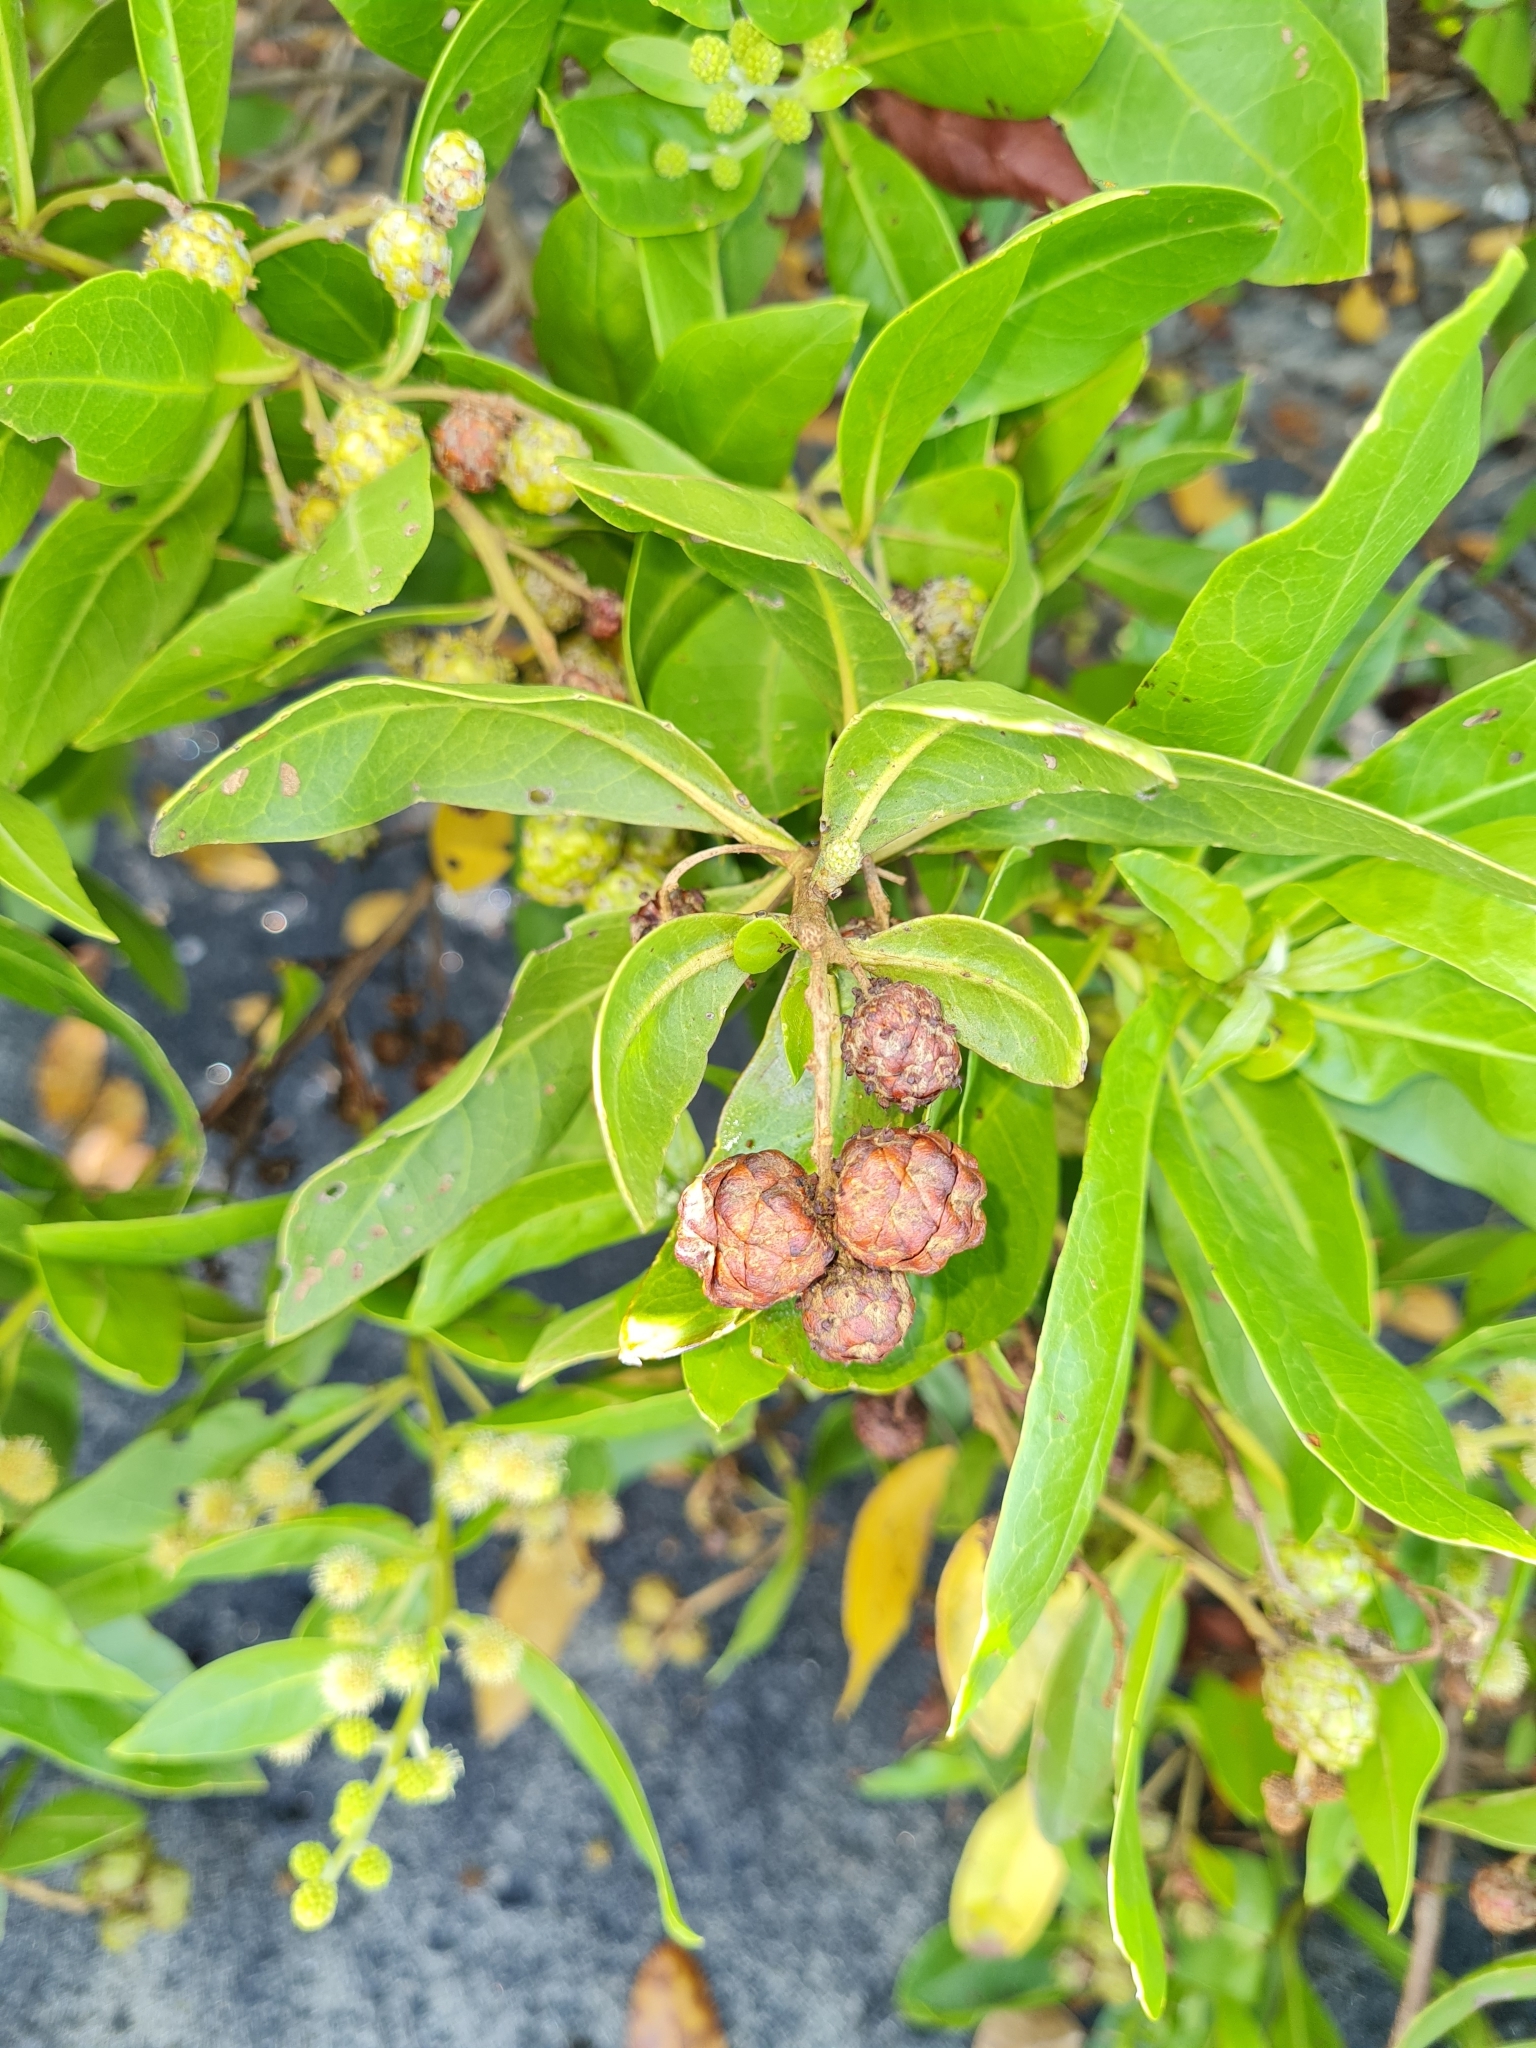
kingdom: Plantae
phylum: Tracheophyta
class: Magnoliopsida
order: Myrtales
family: Combretaceae
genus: Conocarpus
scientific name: Conocarpus erectus
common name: Button mangrove
